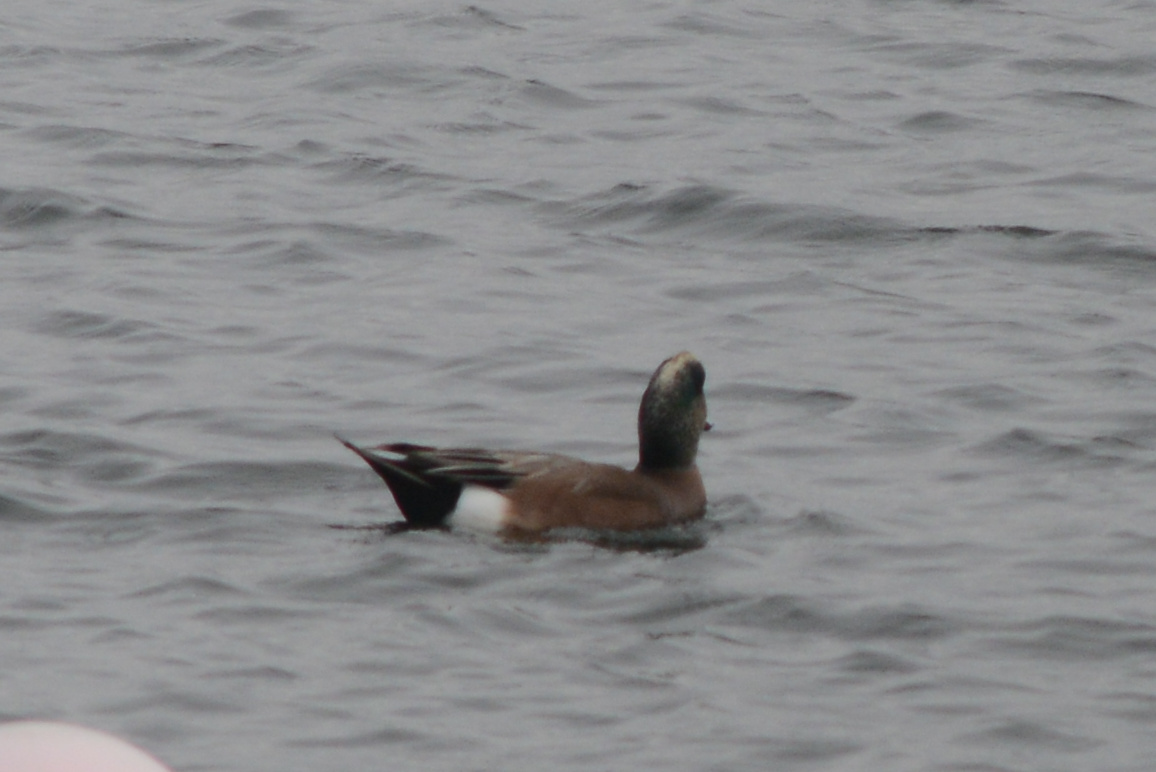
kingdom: Animalia
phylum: Chordata
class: Aves
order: Anseriformes
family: Anatidae
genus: Mareca
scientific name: Mareca americana
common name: American wigeon
